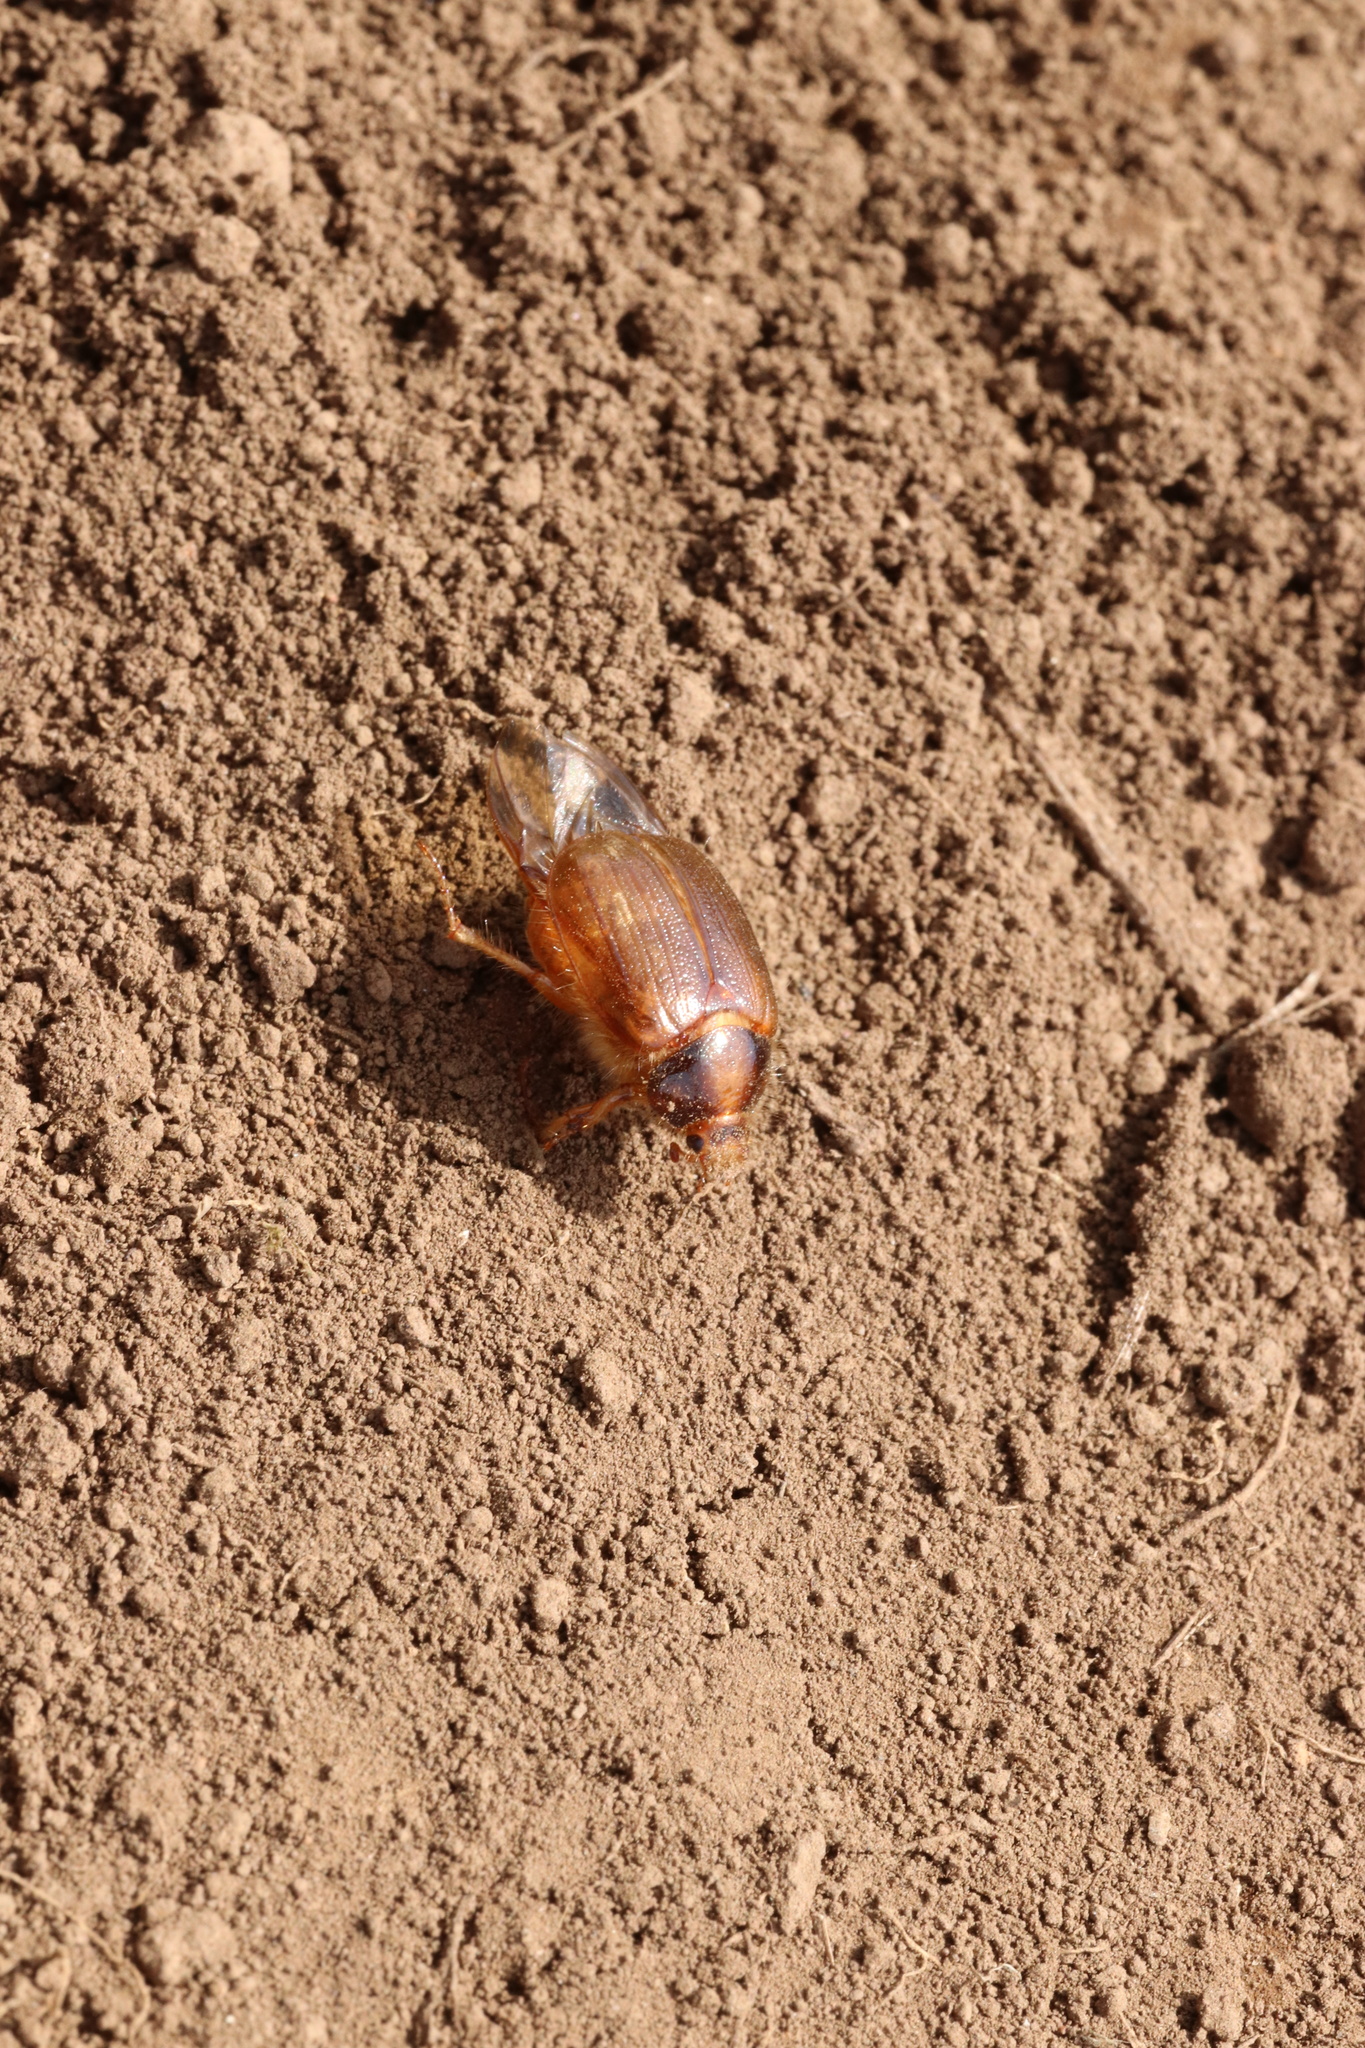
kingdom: Animalia
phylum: Arthropoda
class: Insecta
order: Coleoptera
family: Scarabaeidae
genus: Phytholaema
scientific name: Phytholaema herrmanni
